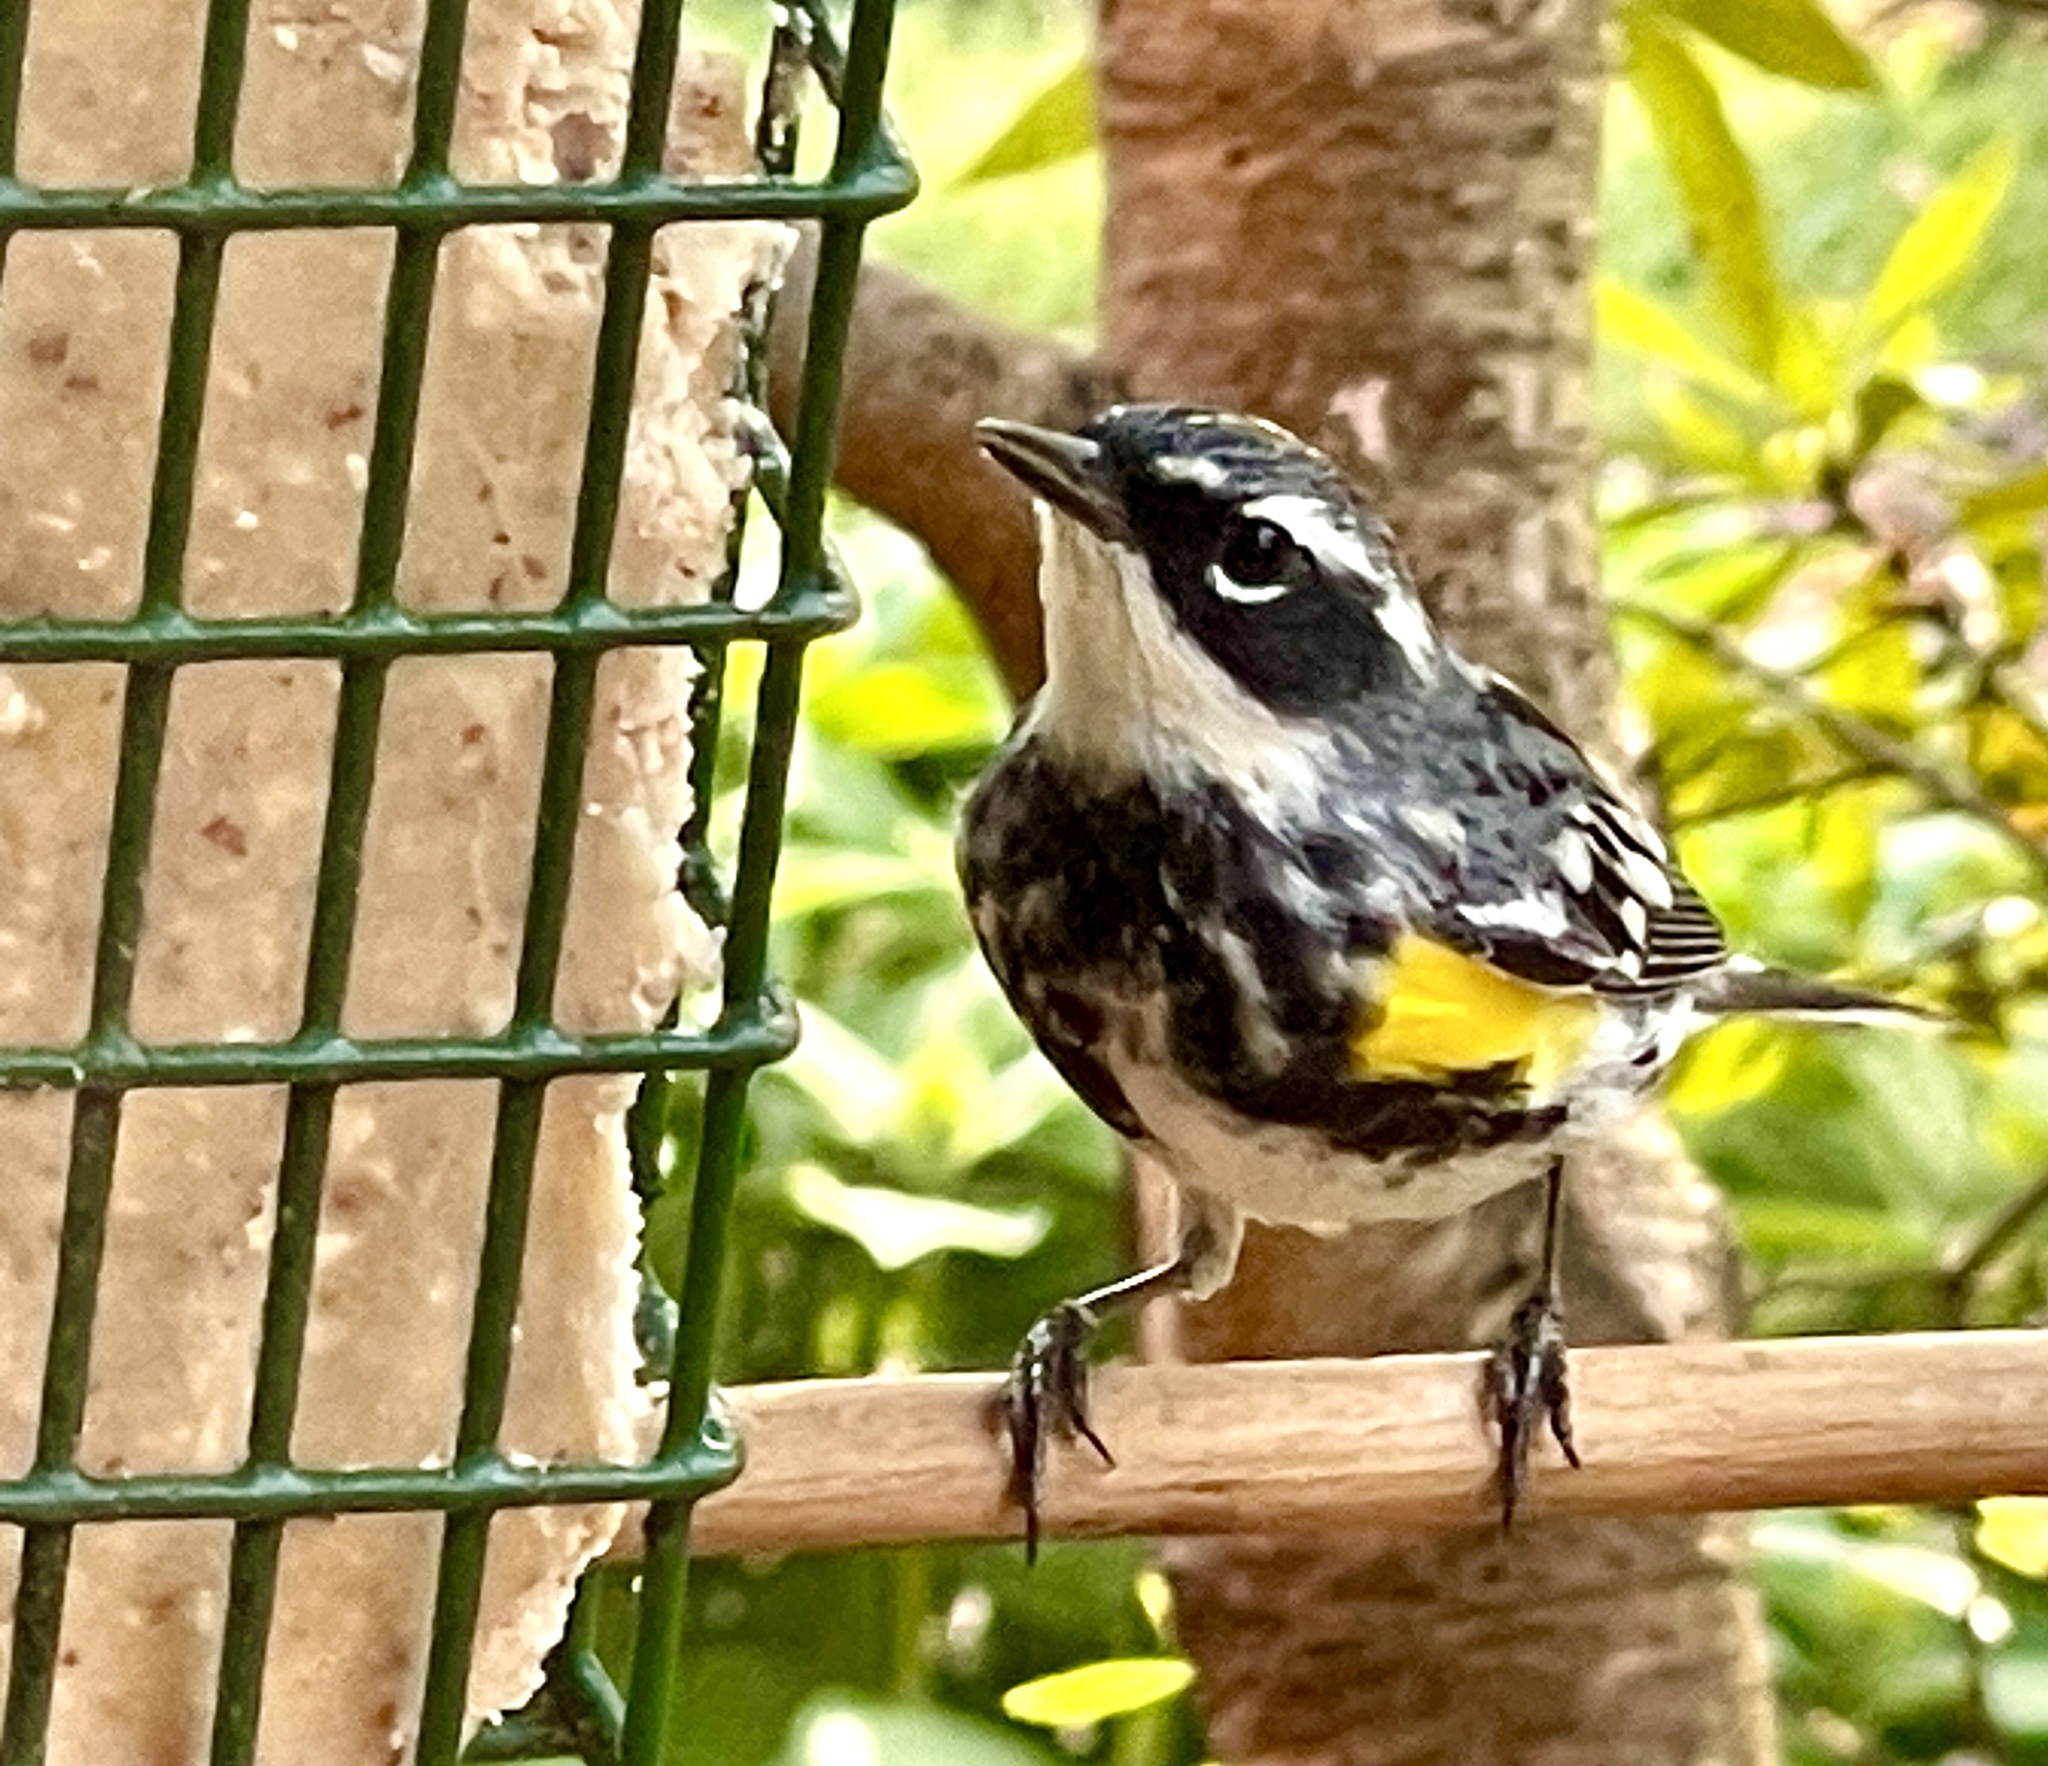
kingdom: Animalia
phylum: Chordata
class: Aves
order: Passeriformes
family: Parulidae
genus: Setophaga
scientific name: Setophaga coronata
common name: Myrtle warbler
